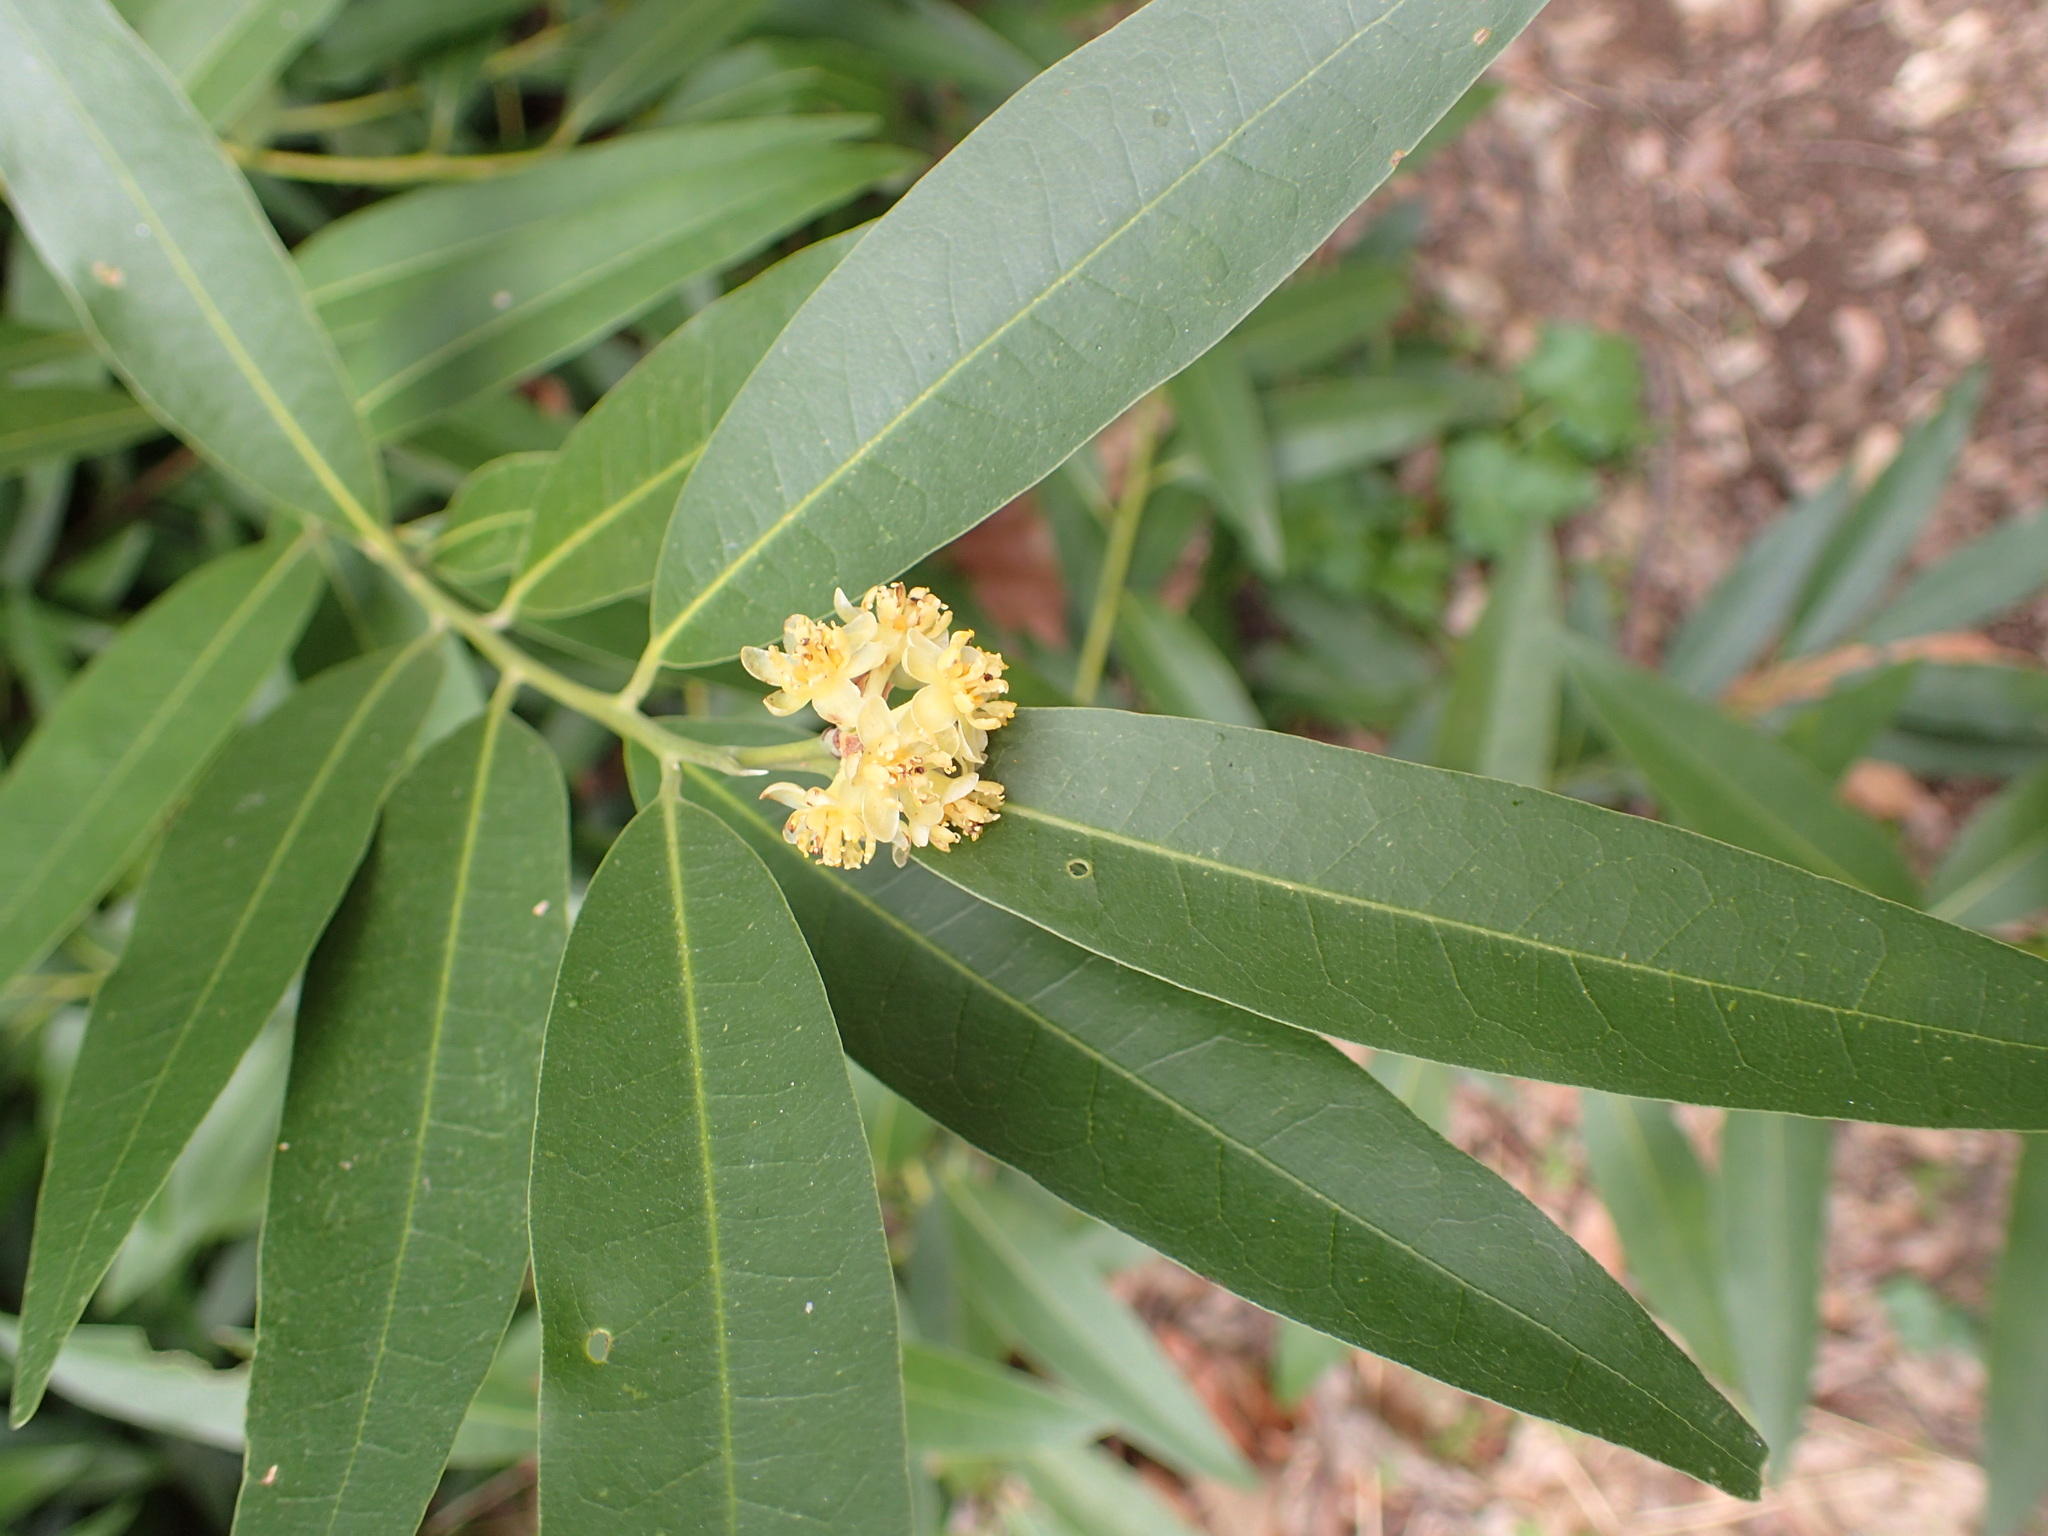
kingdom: Plantae
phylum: Tracheophyta
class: Magnoliopsida
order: Laurales
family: Lauraceae
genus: Umbellularia
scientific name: Umbellularia californica
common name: California bay
